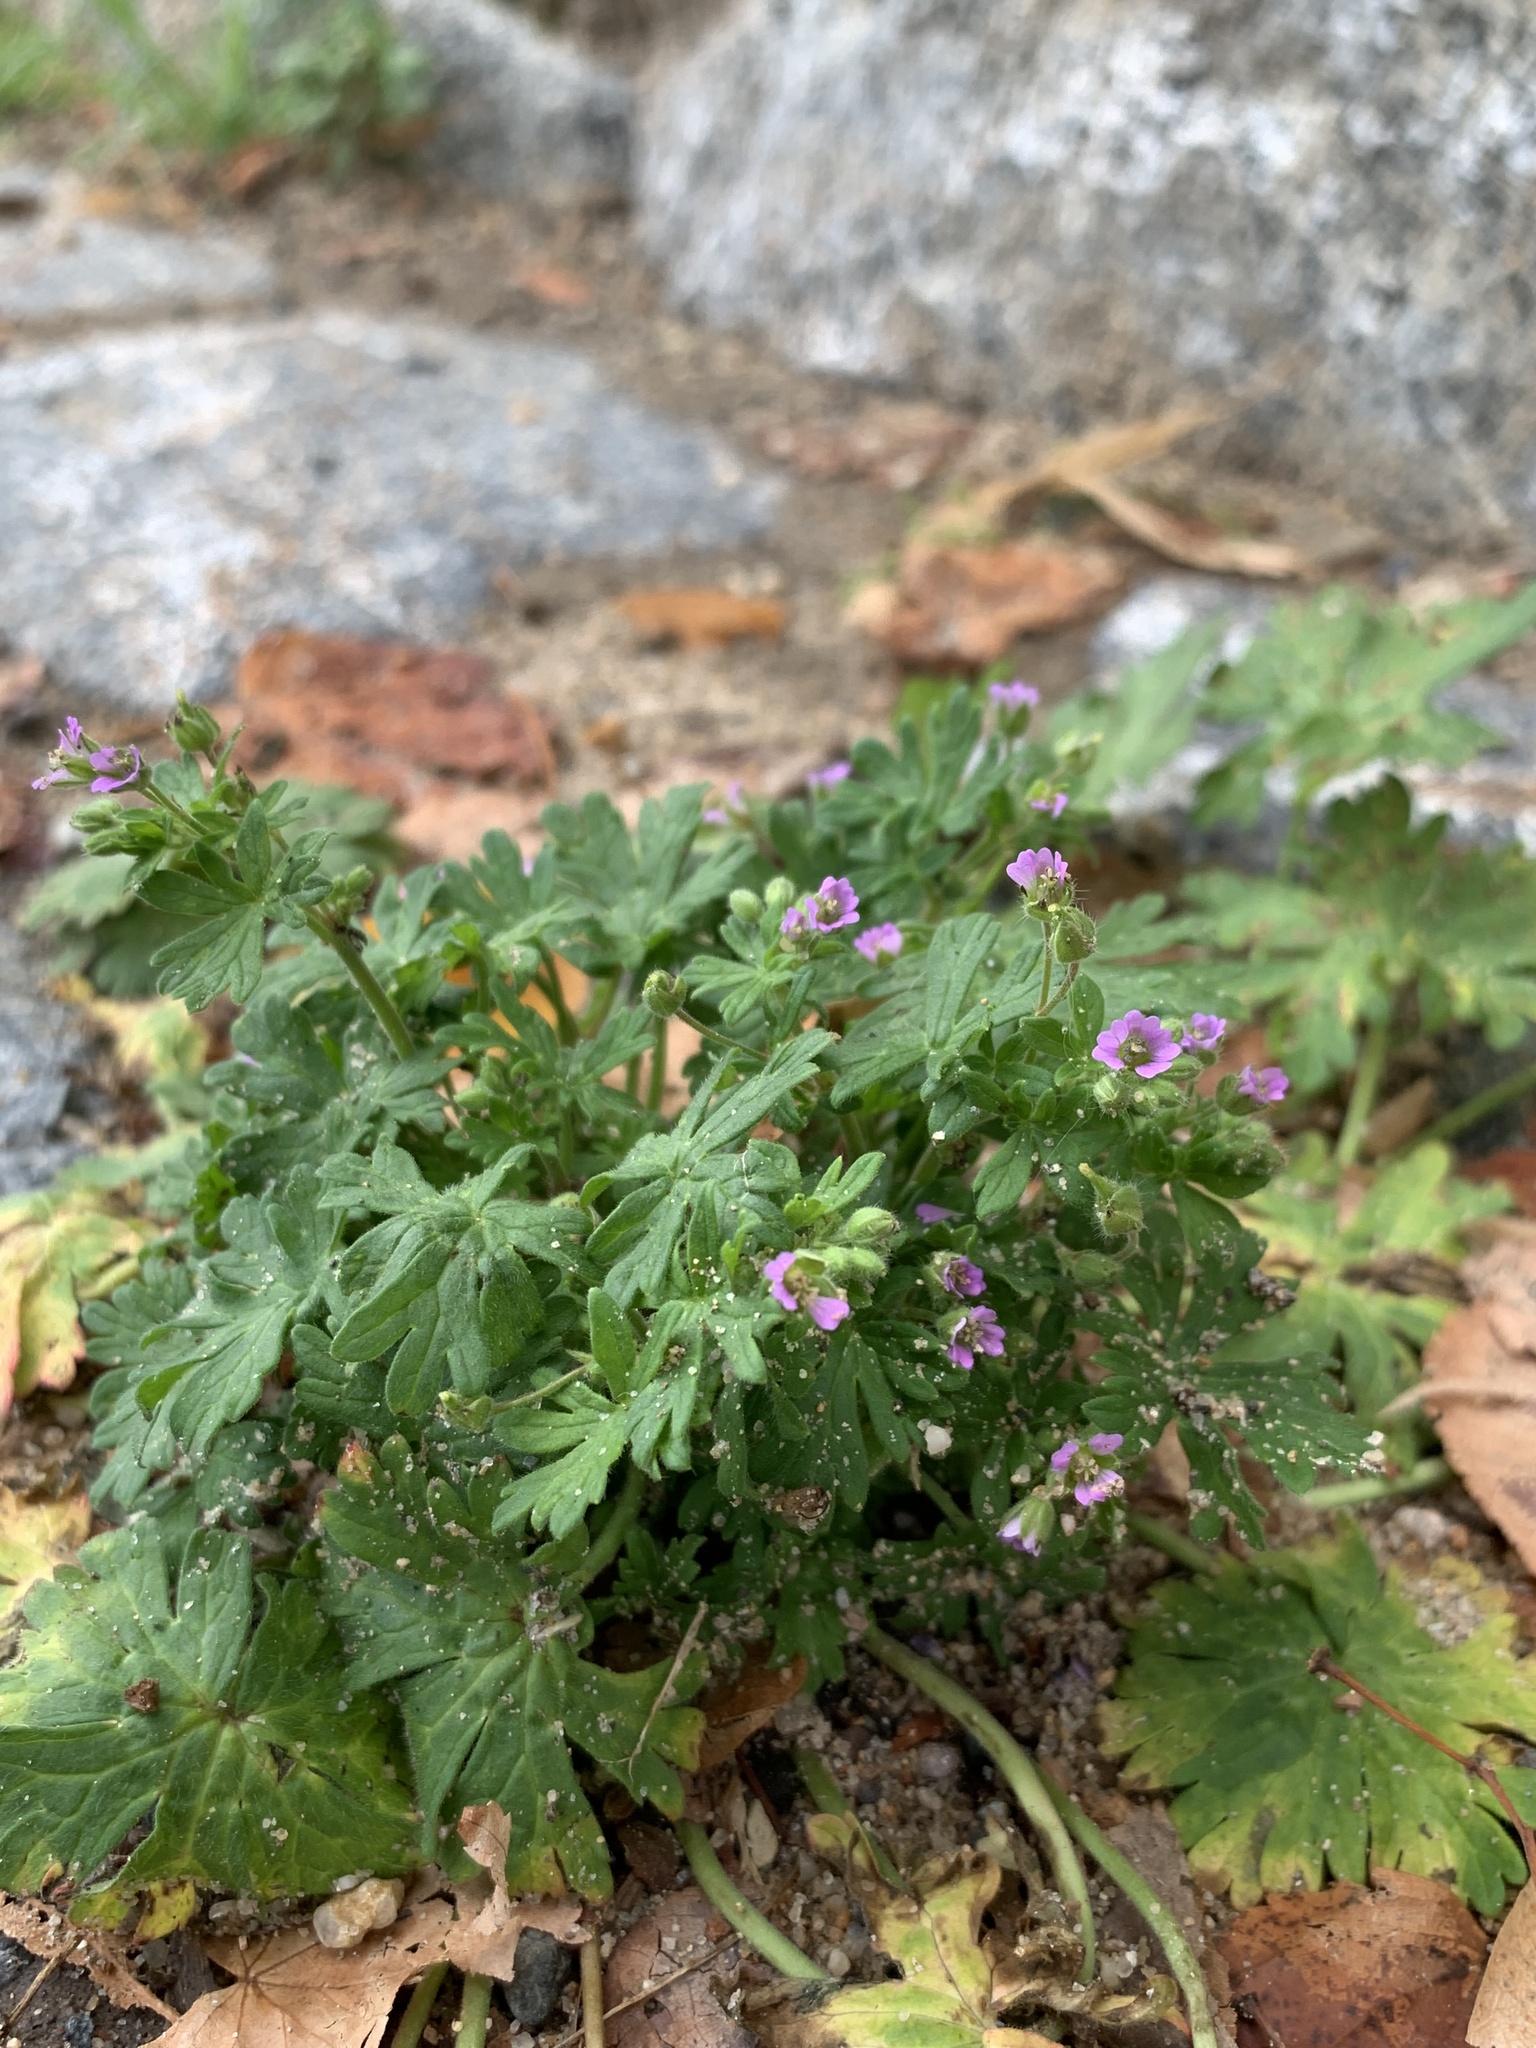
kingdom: Plantae
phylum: Tracheophyta
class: Magnoliopsida
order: Geraniales
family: Geraniaceae
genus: Geranium
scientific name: Geranium pusillum
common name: Small geranium
